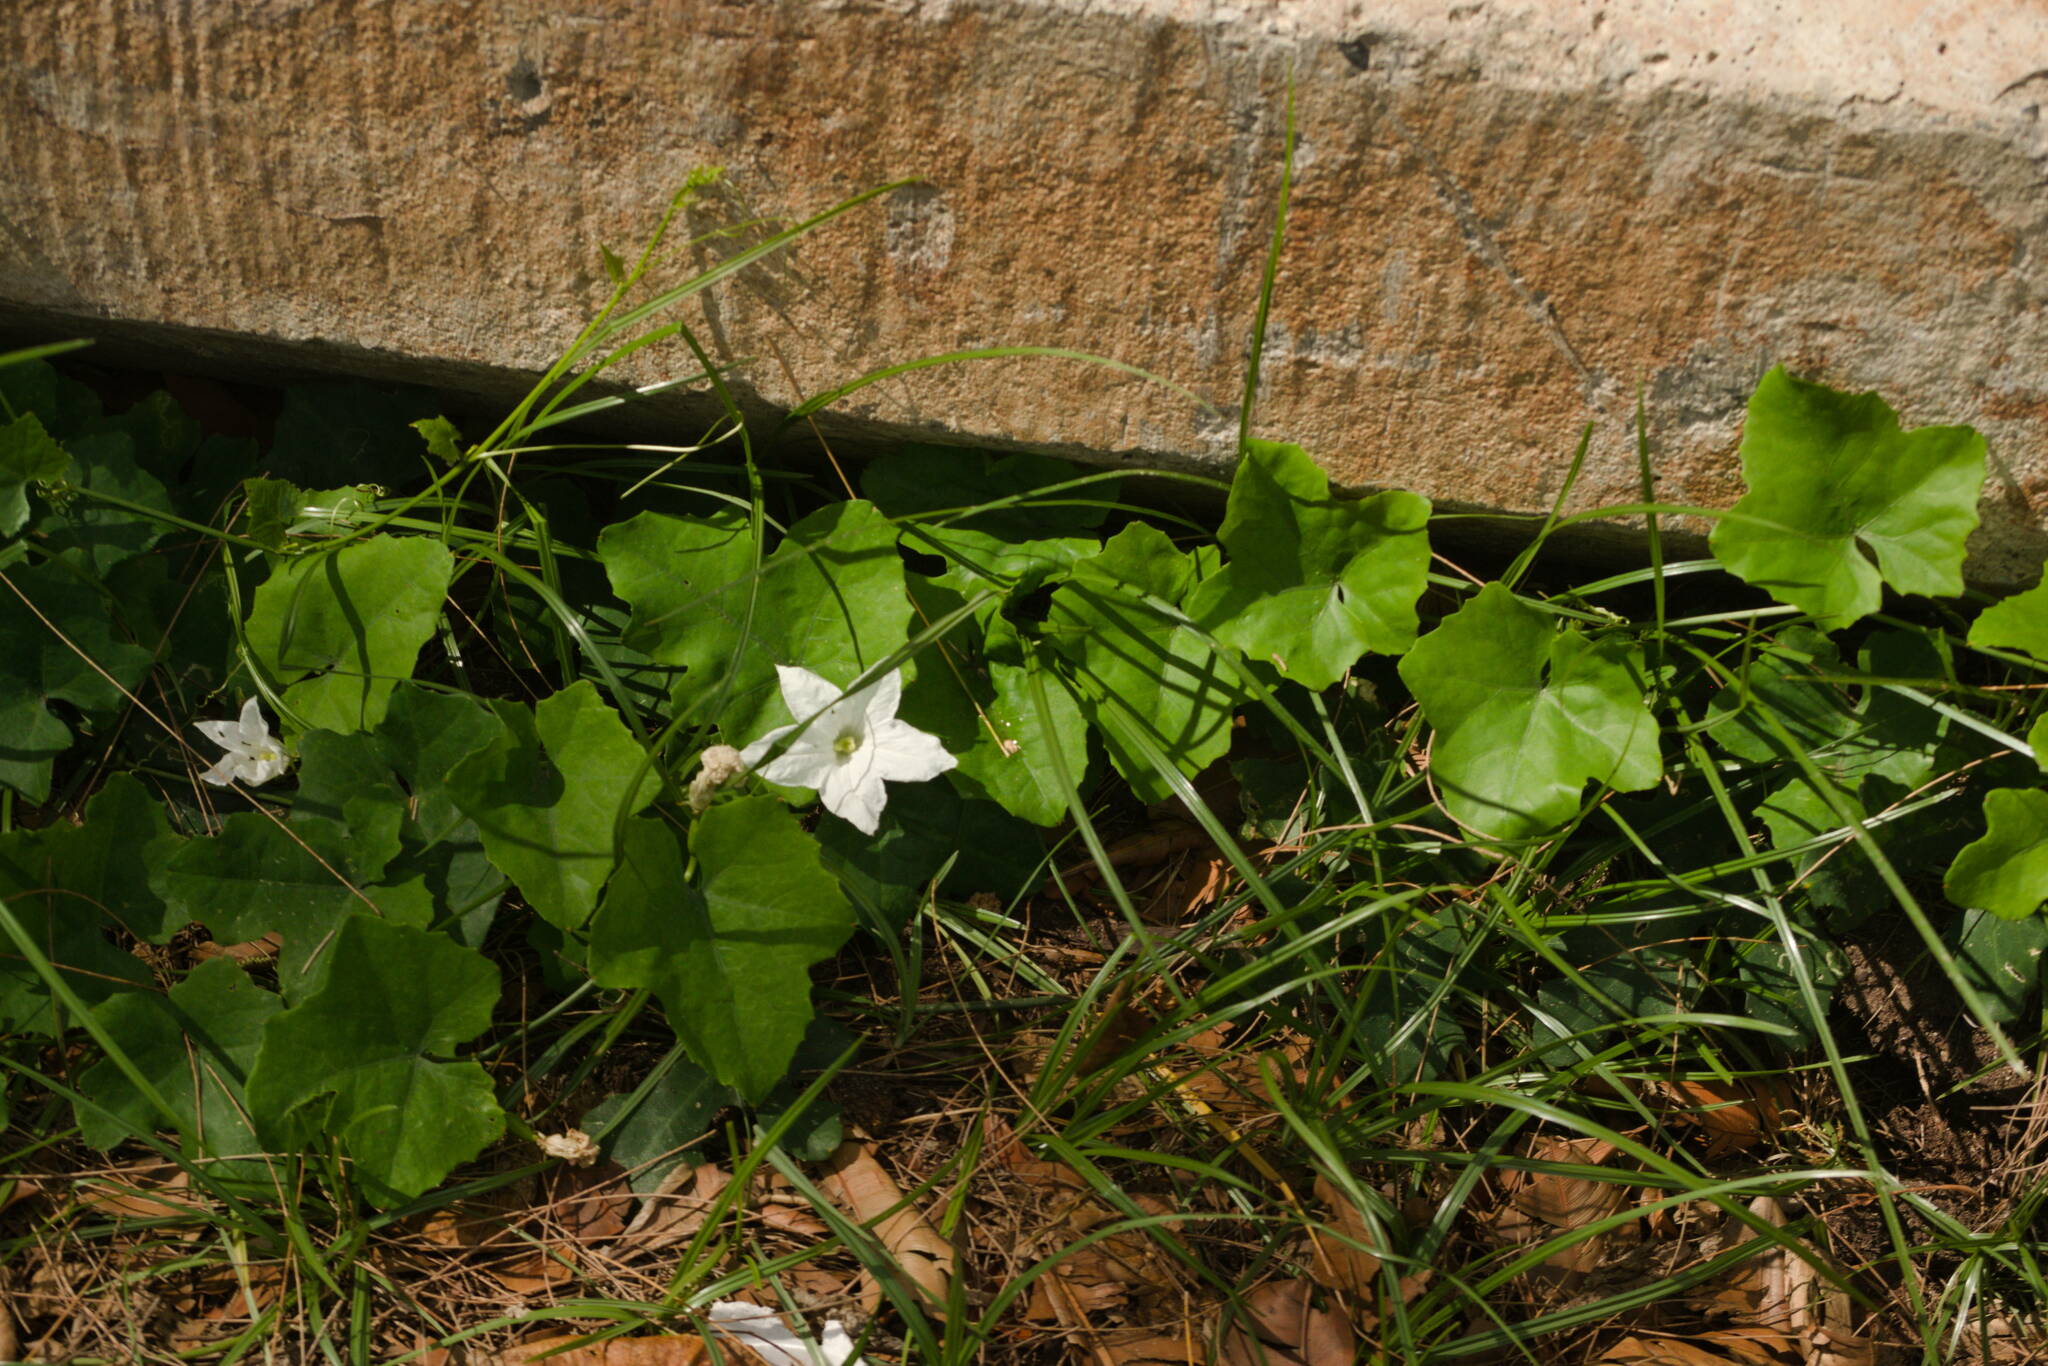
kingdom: Plantae
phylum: Tracheophyta
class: Magnoliopsida
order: Cucurbitales
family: Cucurbitaceae
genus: Coccinia
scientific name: Coccinia grandis
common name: Ivy gourd
